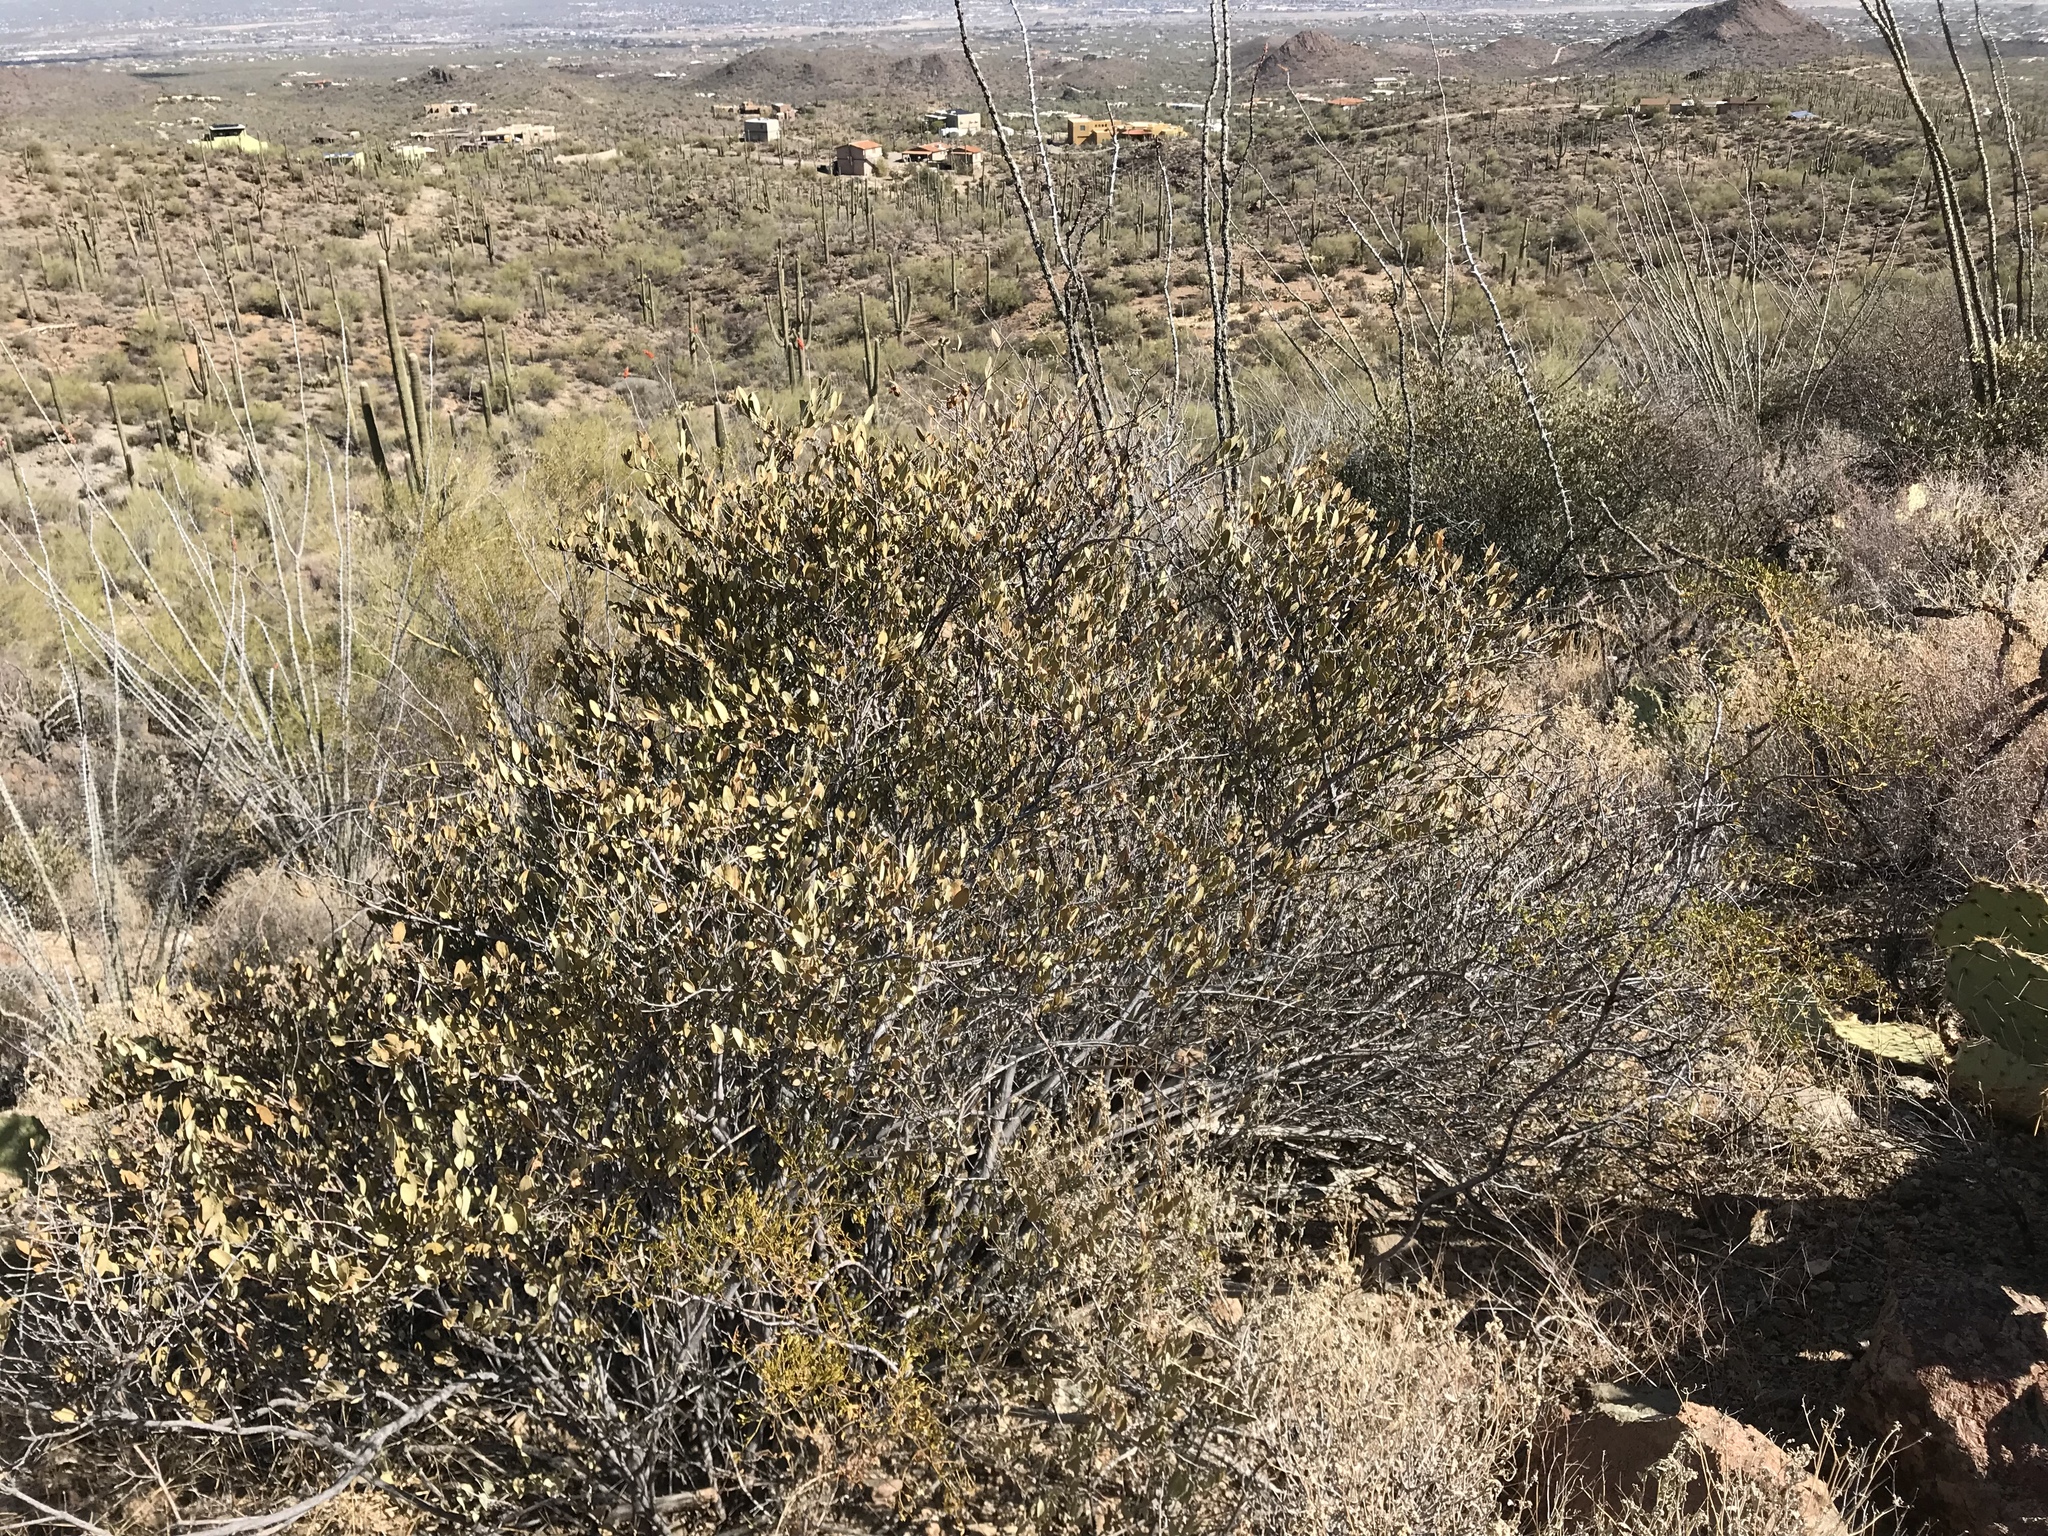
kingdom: Plantae
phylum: Tracheophyta
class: Magnoliopsida
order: Caryophyllales
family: Simmondsiaceae
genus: Simmondsia
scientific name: Simmondsia chinensis
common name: Jojoba
